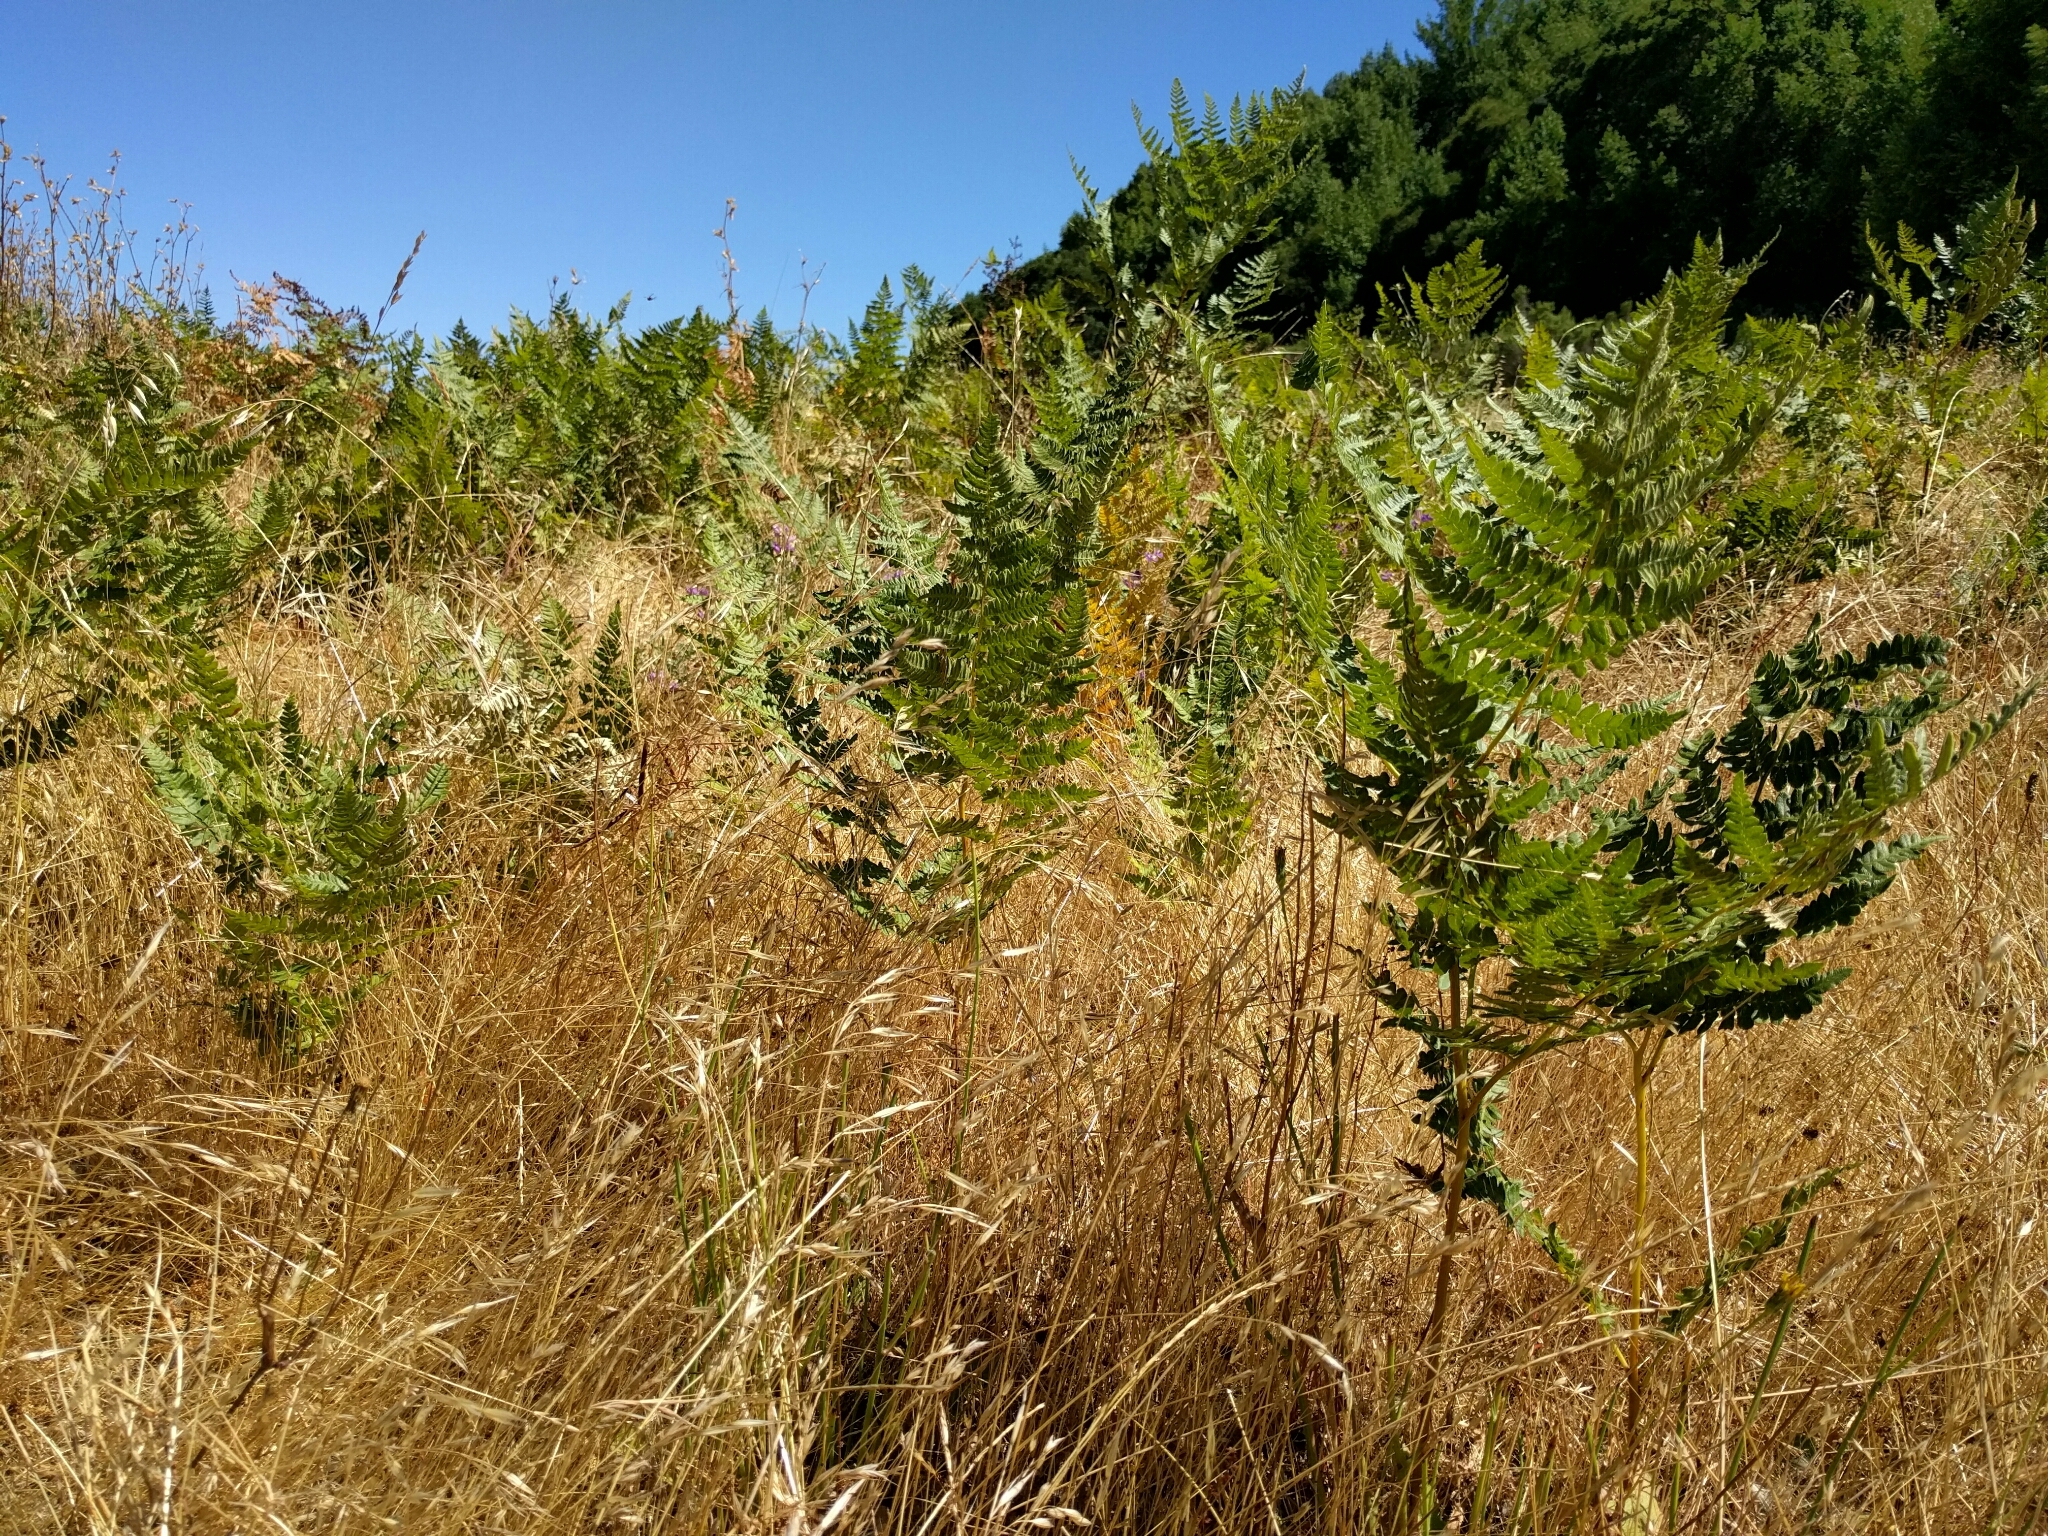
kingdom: Plantae
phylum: Tracheophyta
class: Polypodiopsida
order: Polypodiales
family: Dennstaedtiaceae
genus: Pteridium
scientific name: Pteridium aquilinum
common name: Bracken
